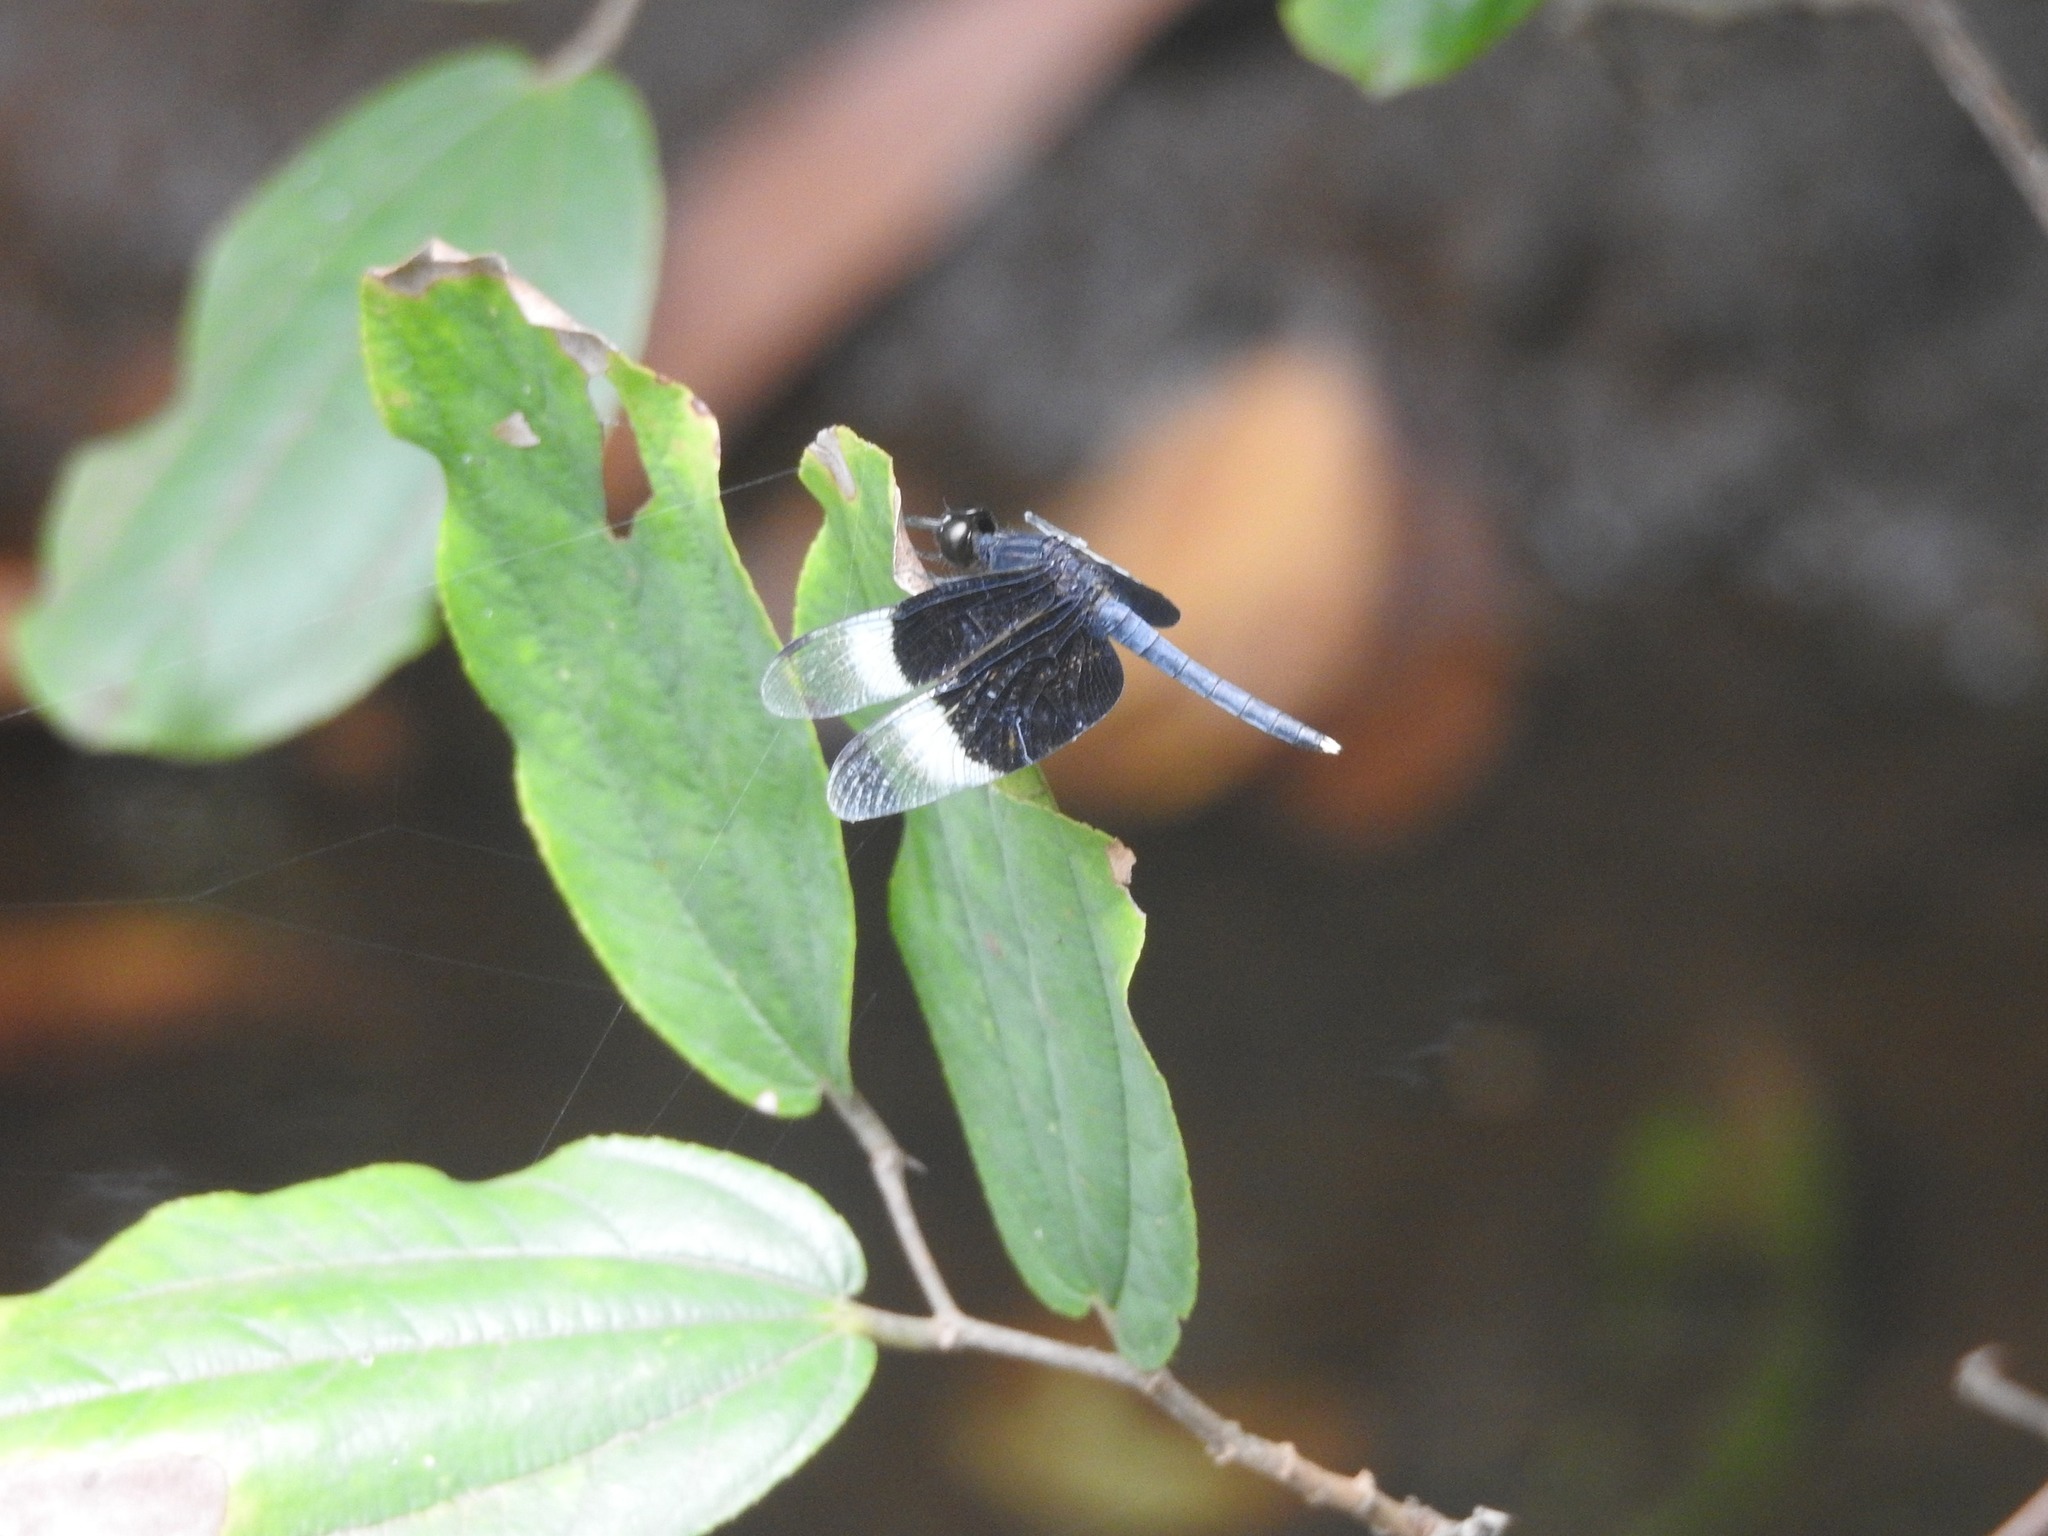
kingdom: Animalia
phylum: Arthropoda
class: Insecta
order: Odonata
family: Libellulidae
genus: Neurothemis
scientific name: Neurothemis tullia
